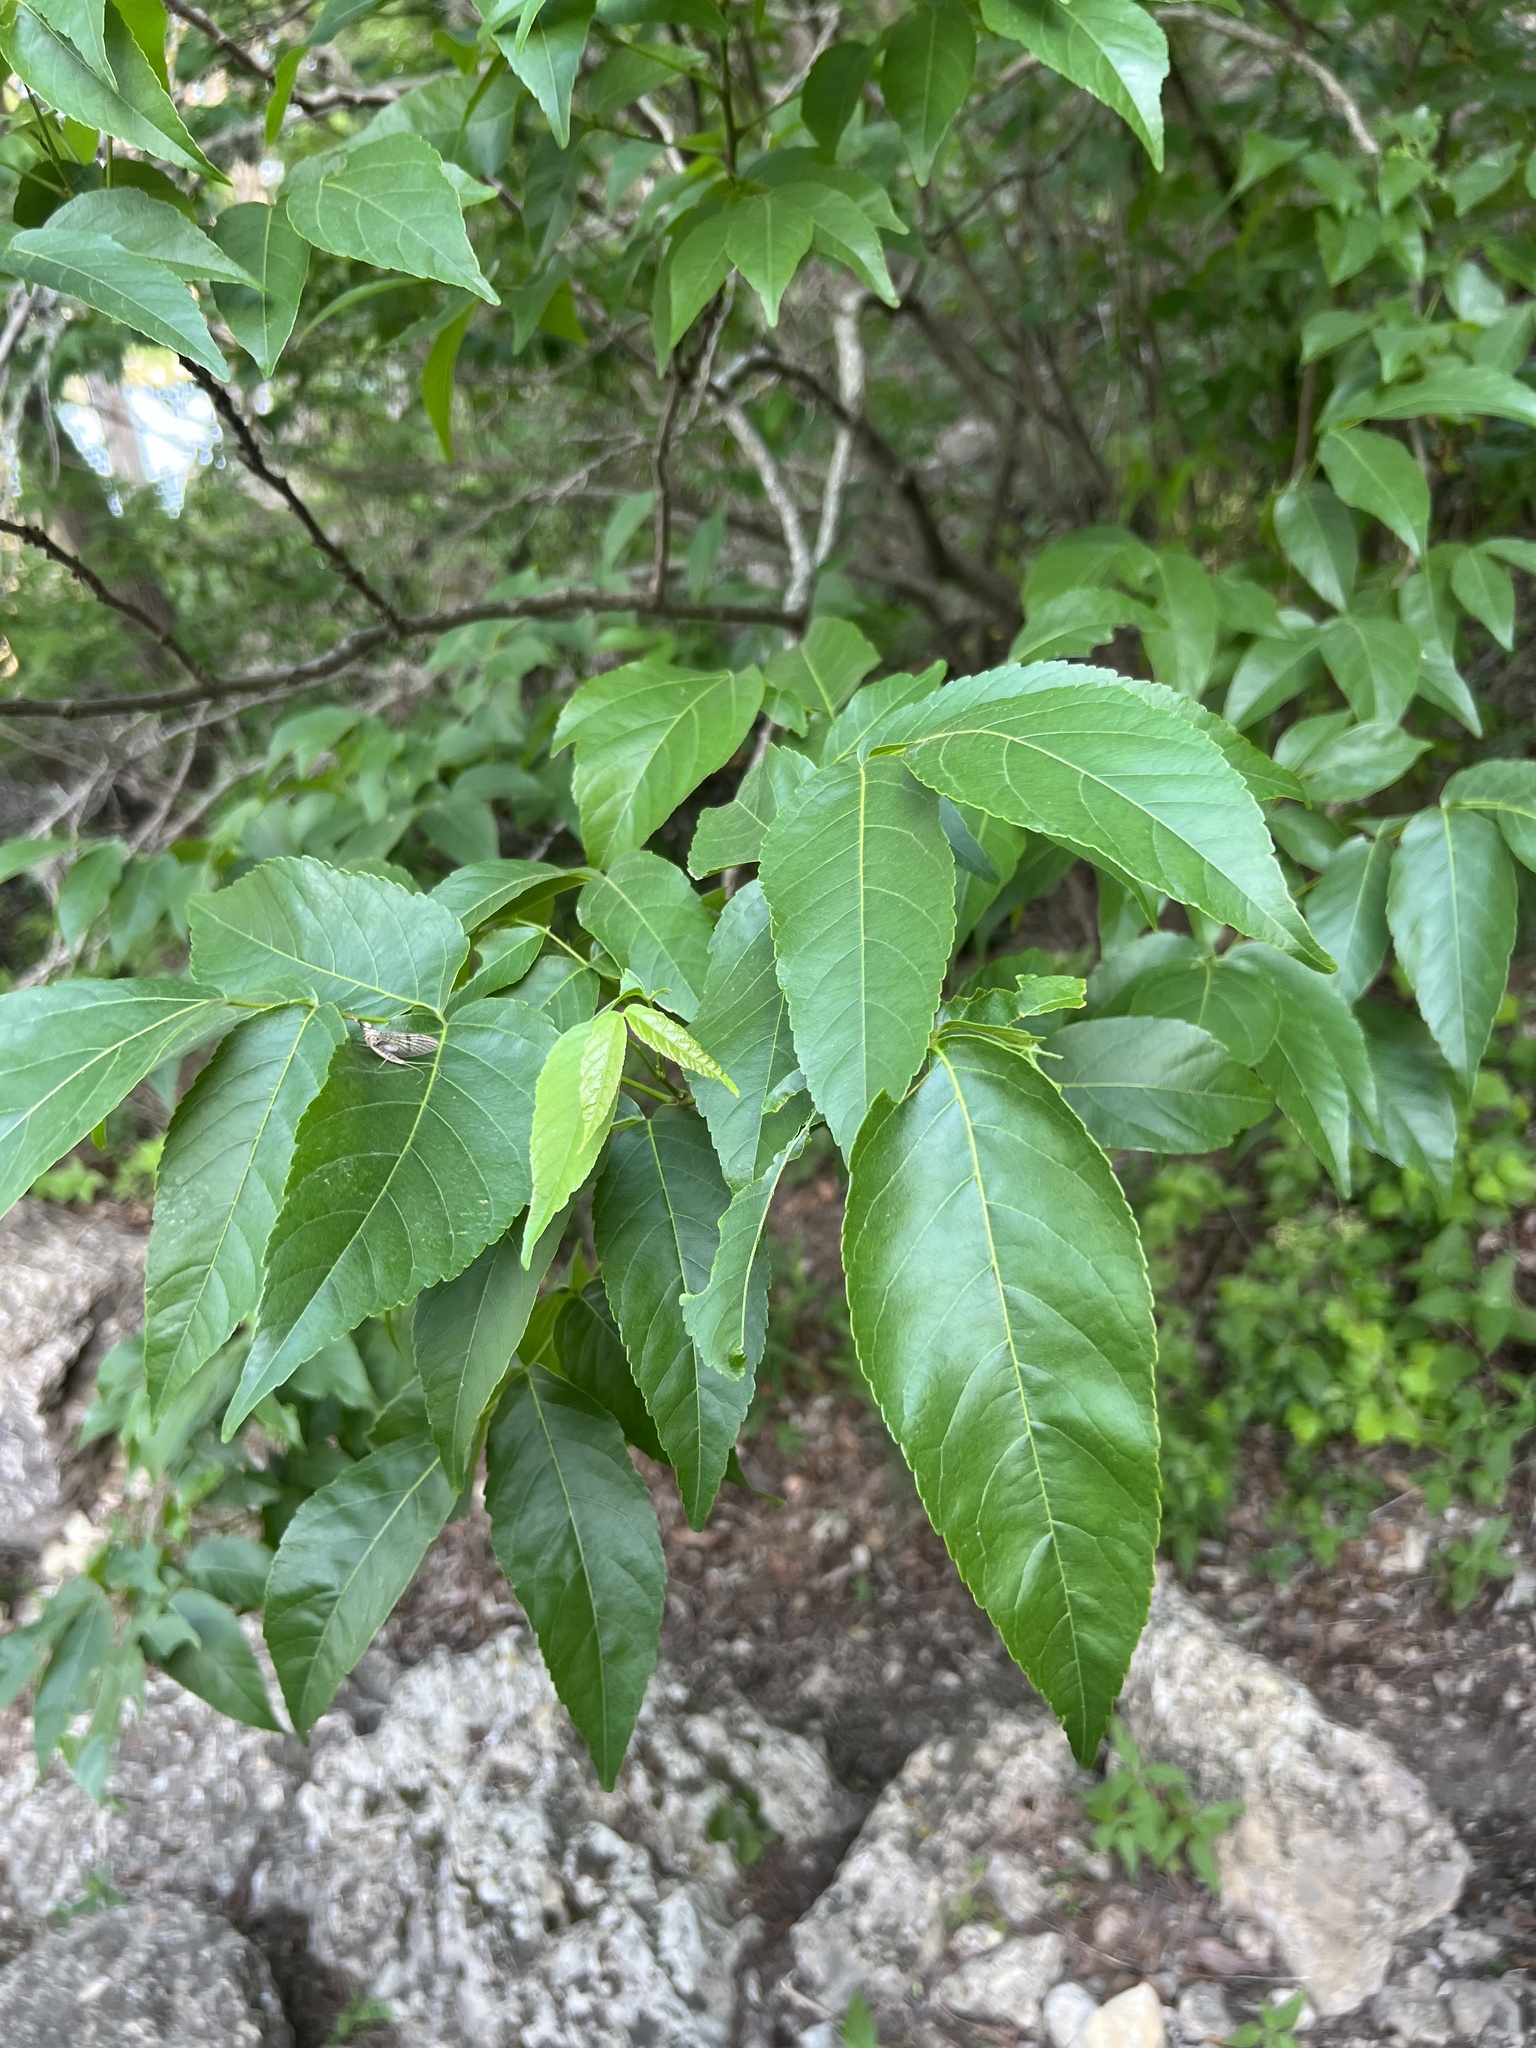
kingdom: Plantae
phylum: Tracheophyta
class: Magnoliopsida
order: Sapindales
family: Sapindaceae
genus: Ungnadia
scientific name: Ungnadia speciosa
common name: Texas-buckeye
